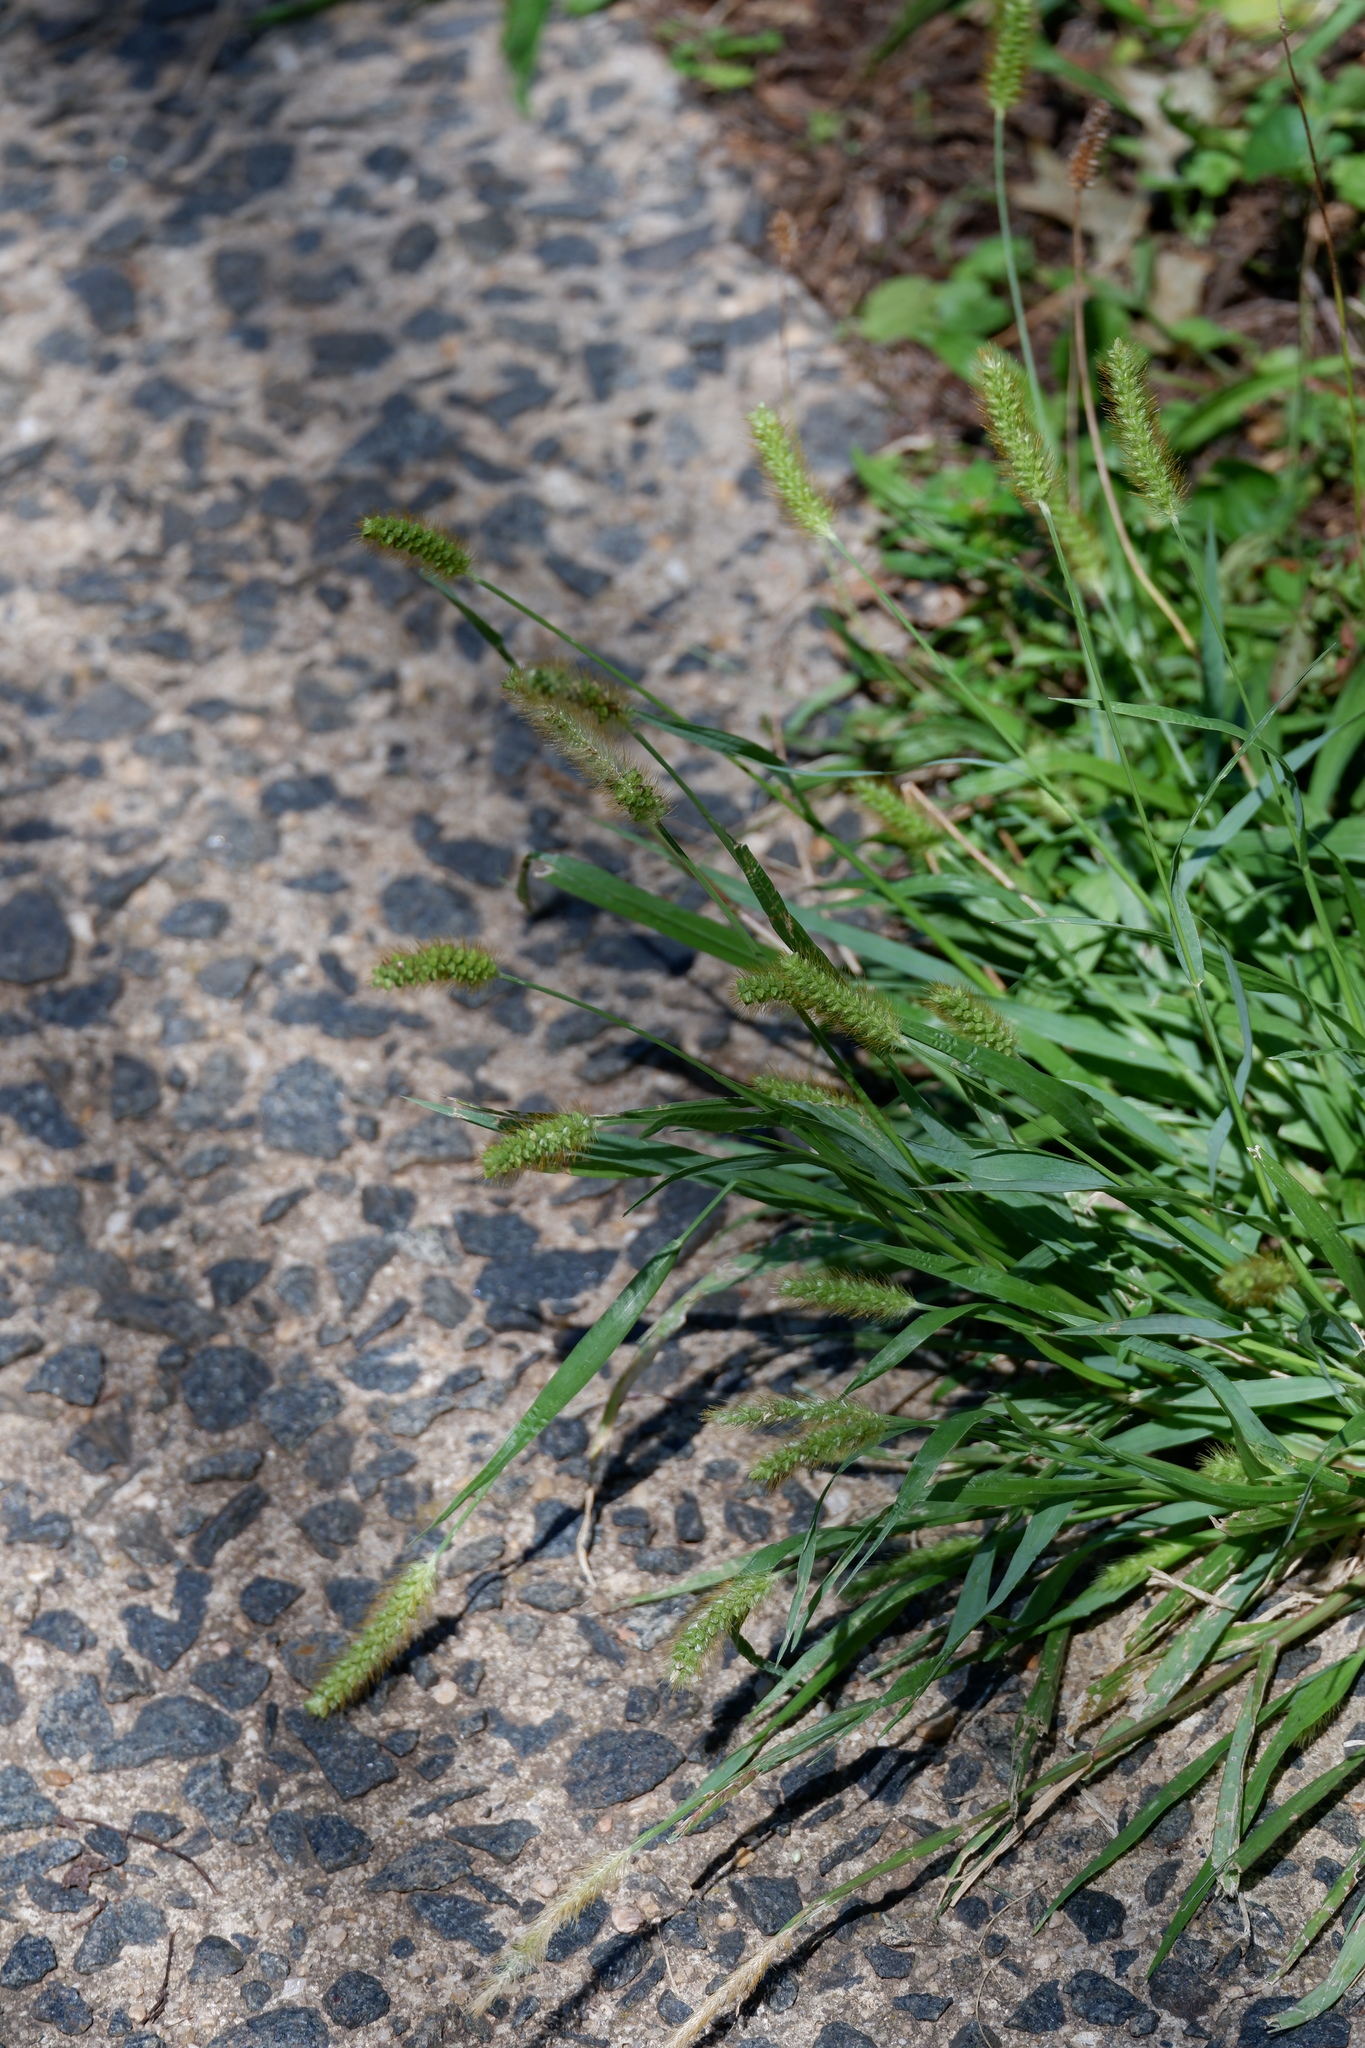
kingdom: Plantae
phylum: Tracheophyta
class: Liliopsida
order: Poales
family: Poaceae
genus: Setaria
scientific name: Setaria pumila
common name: Yellow bristle-grass
